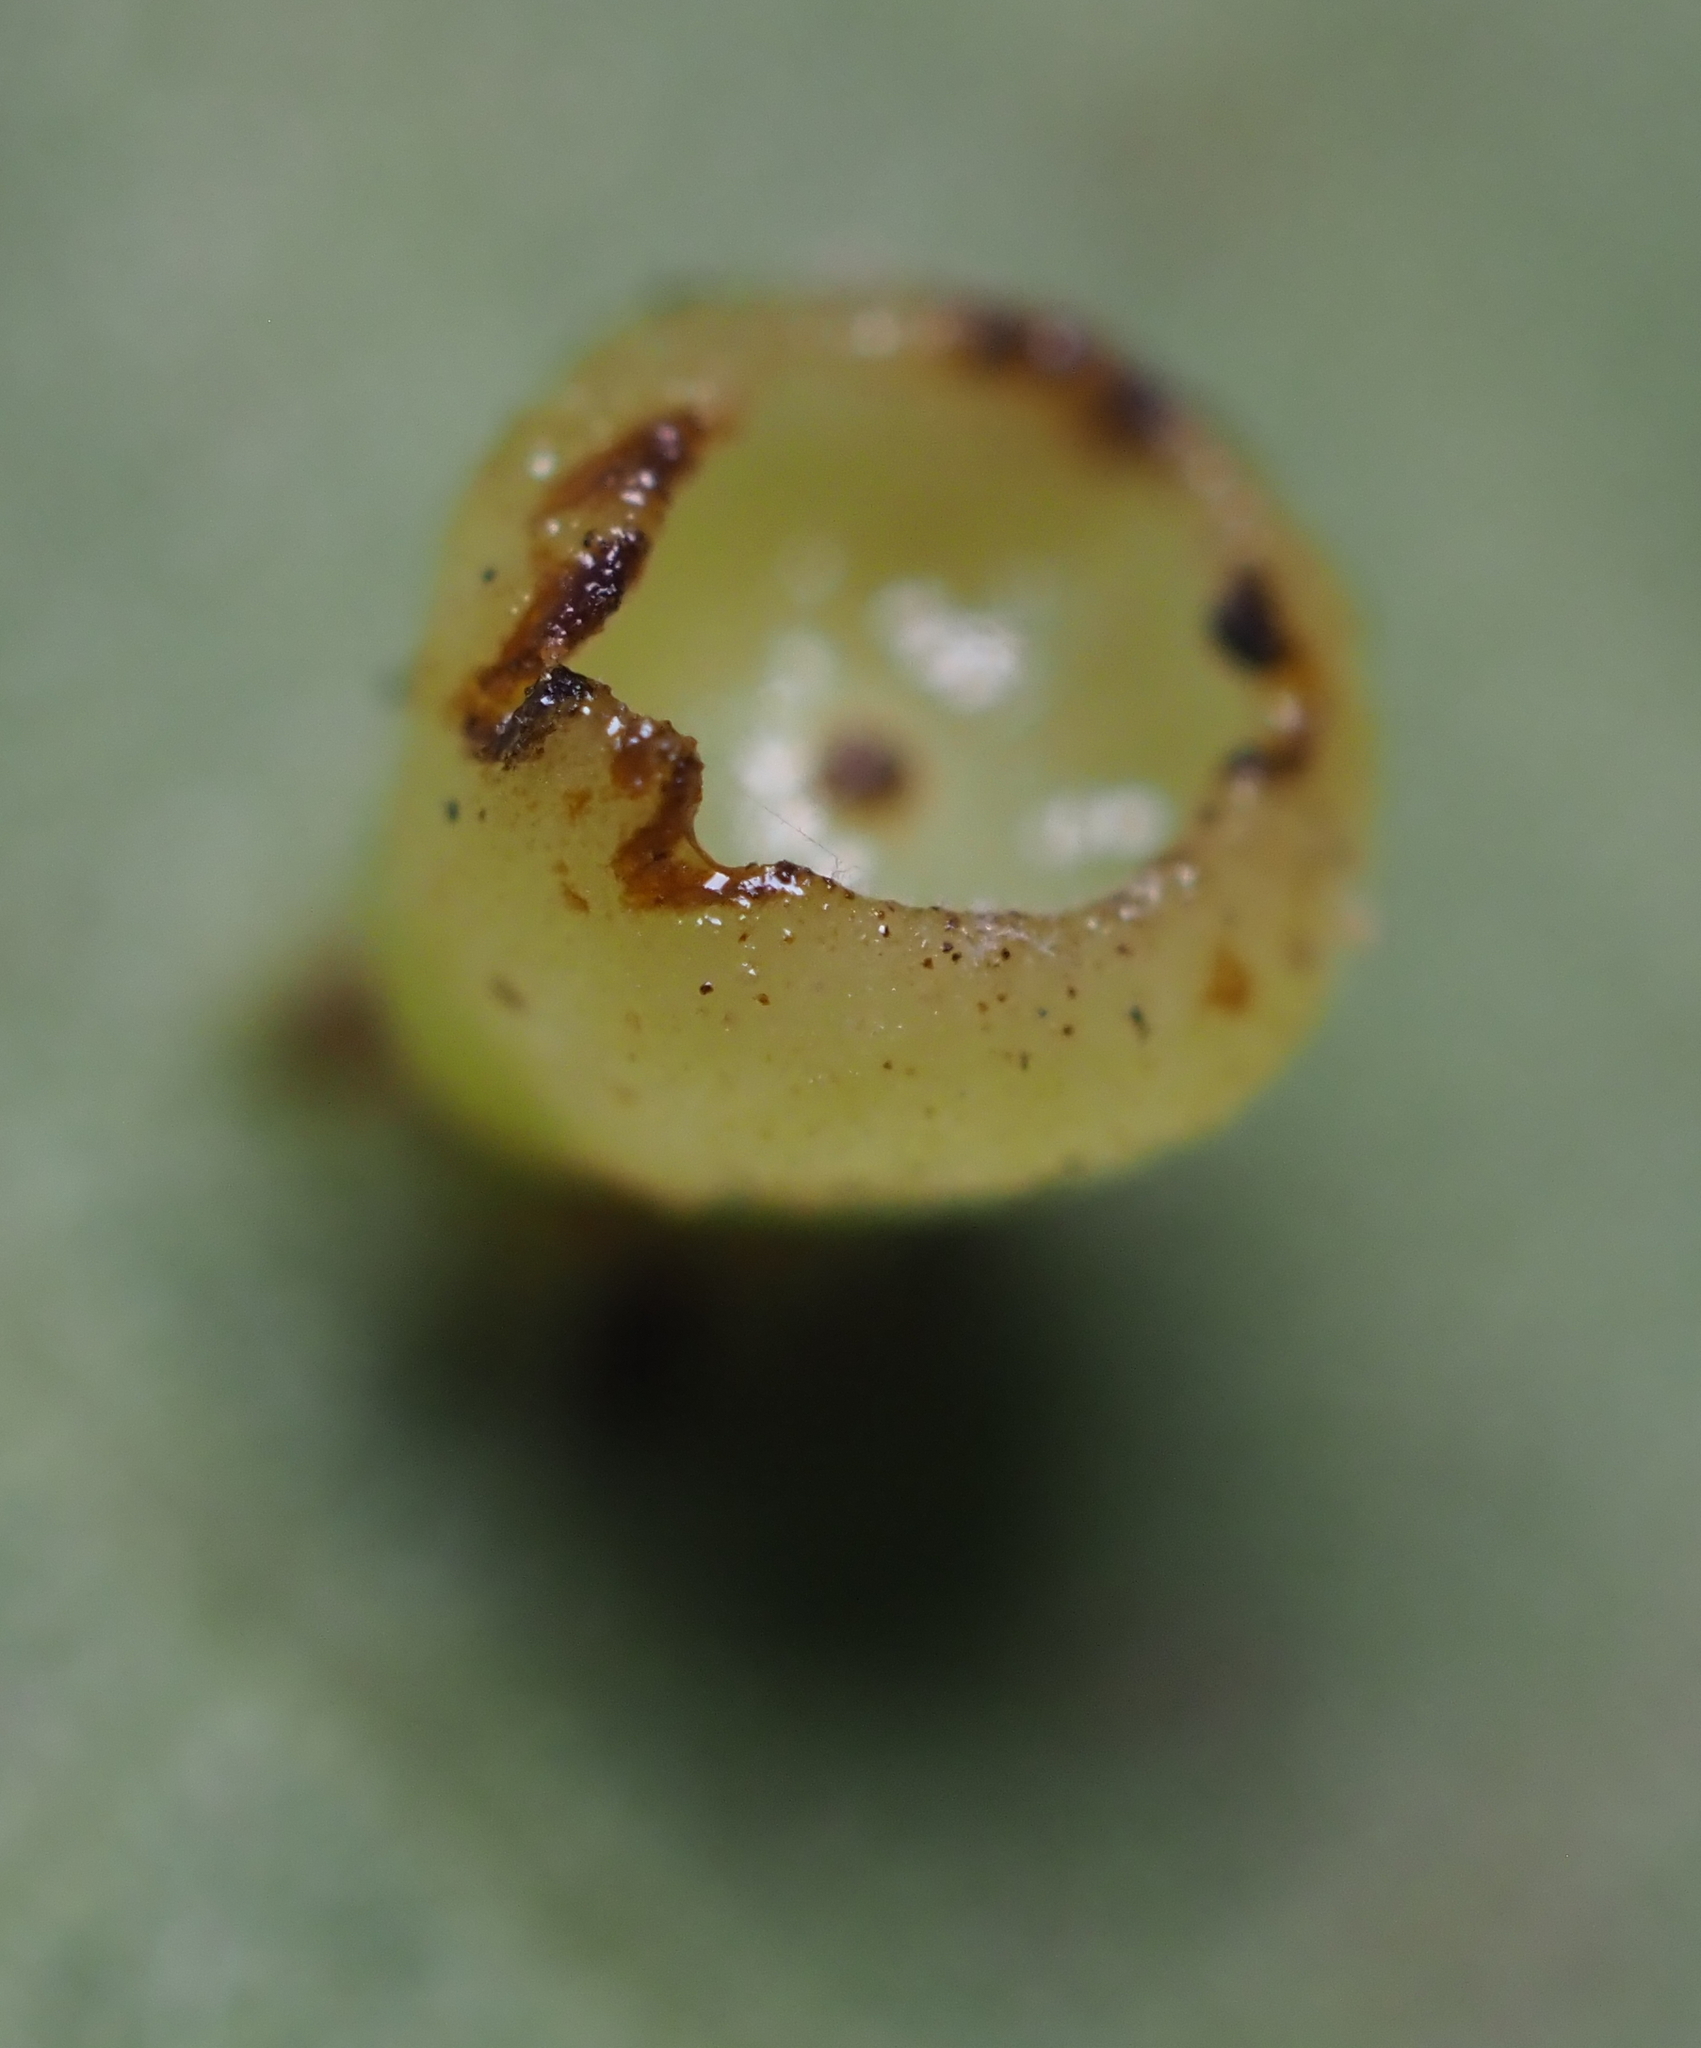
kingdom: Animalia
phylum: Arthropoda
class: Insecta
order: Diptera
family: Cecidomyiidae
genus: Caryomyia
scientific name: Caryomyia flaticrustum
